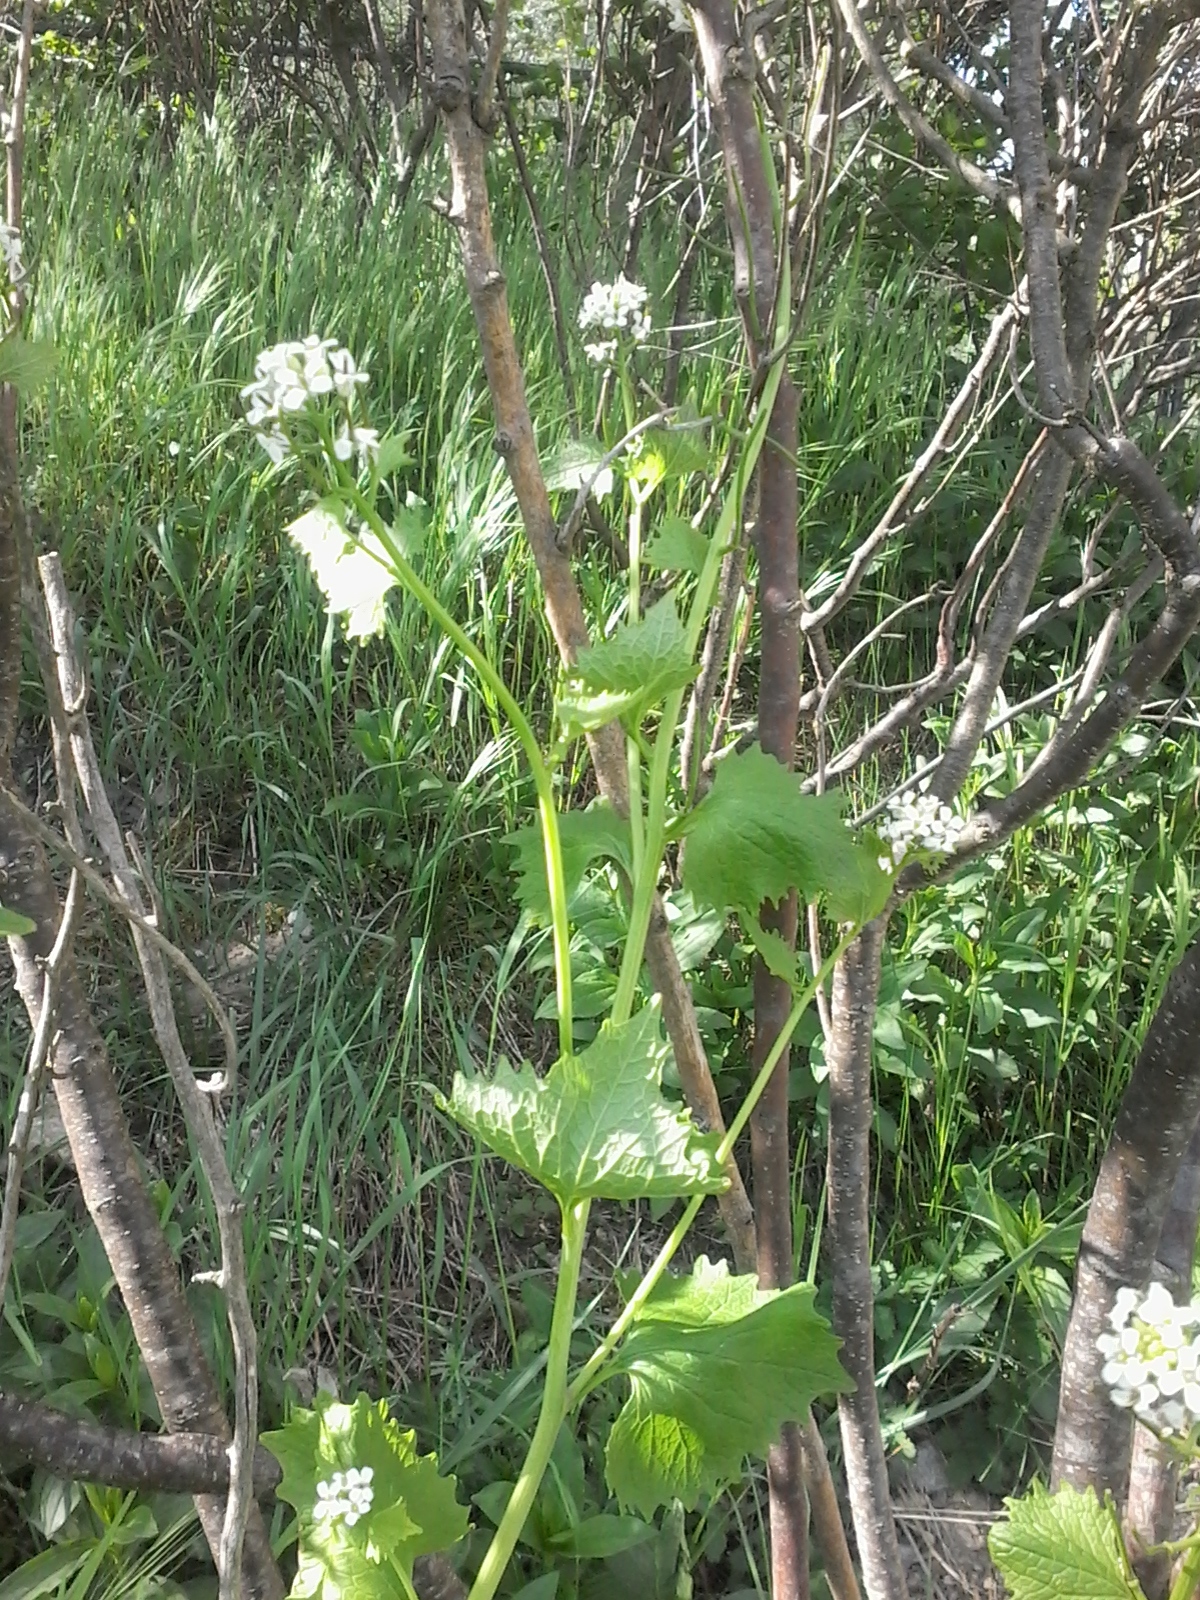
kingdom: Plantae
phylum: Tracheophyta
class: Magnoliopsida
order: Brassicales
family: Brassicaceae
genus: Alliaria
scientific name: Alliaria petiolata
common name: Garlic mustard
